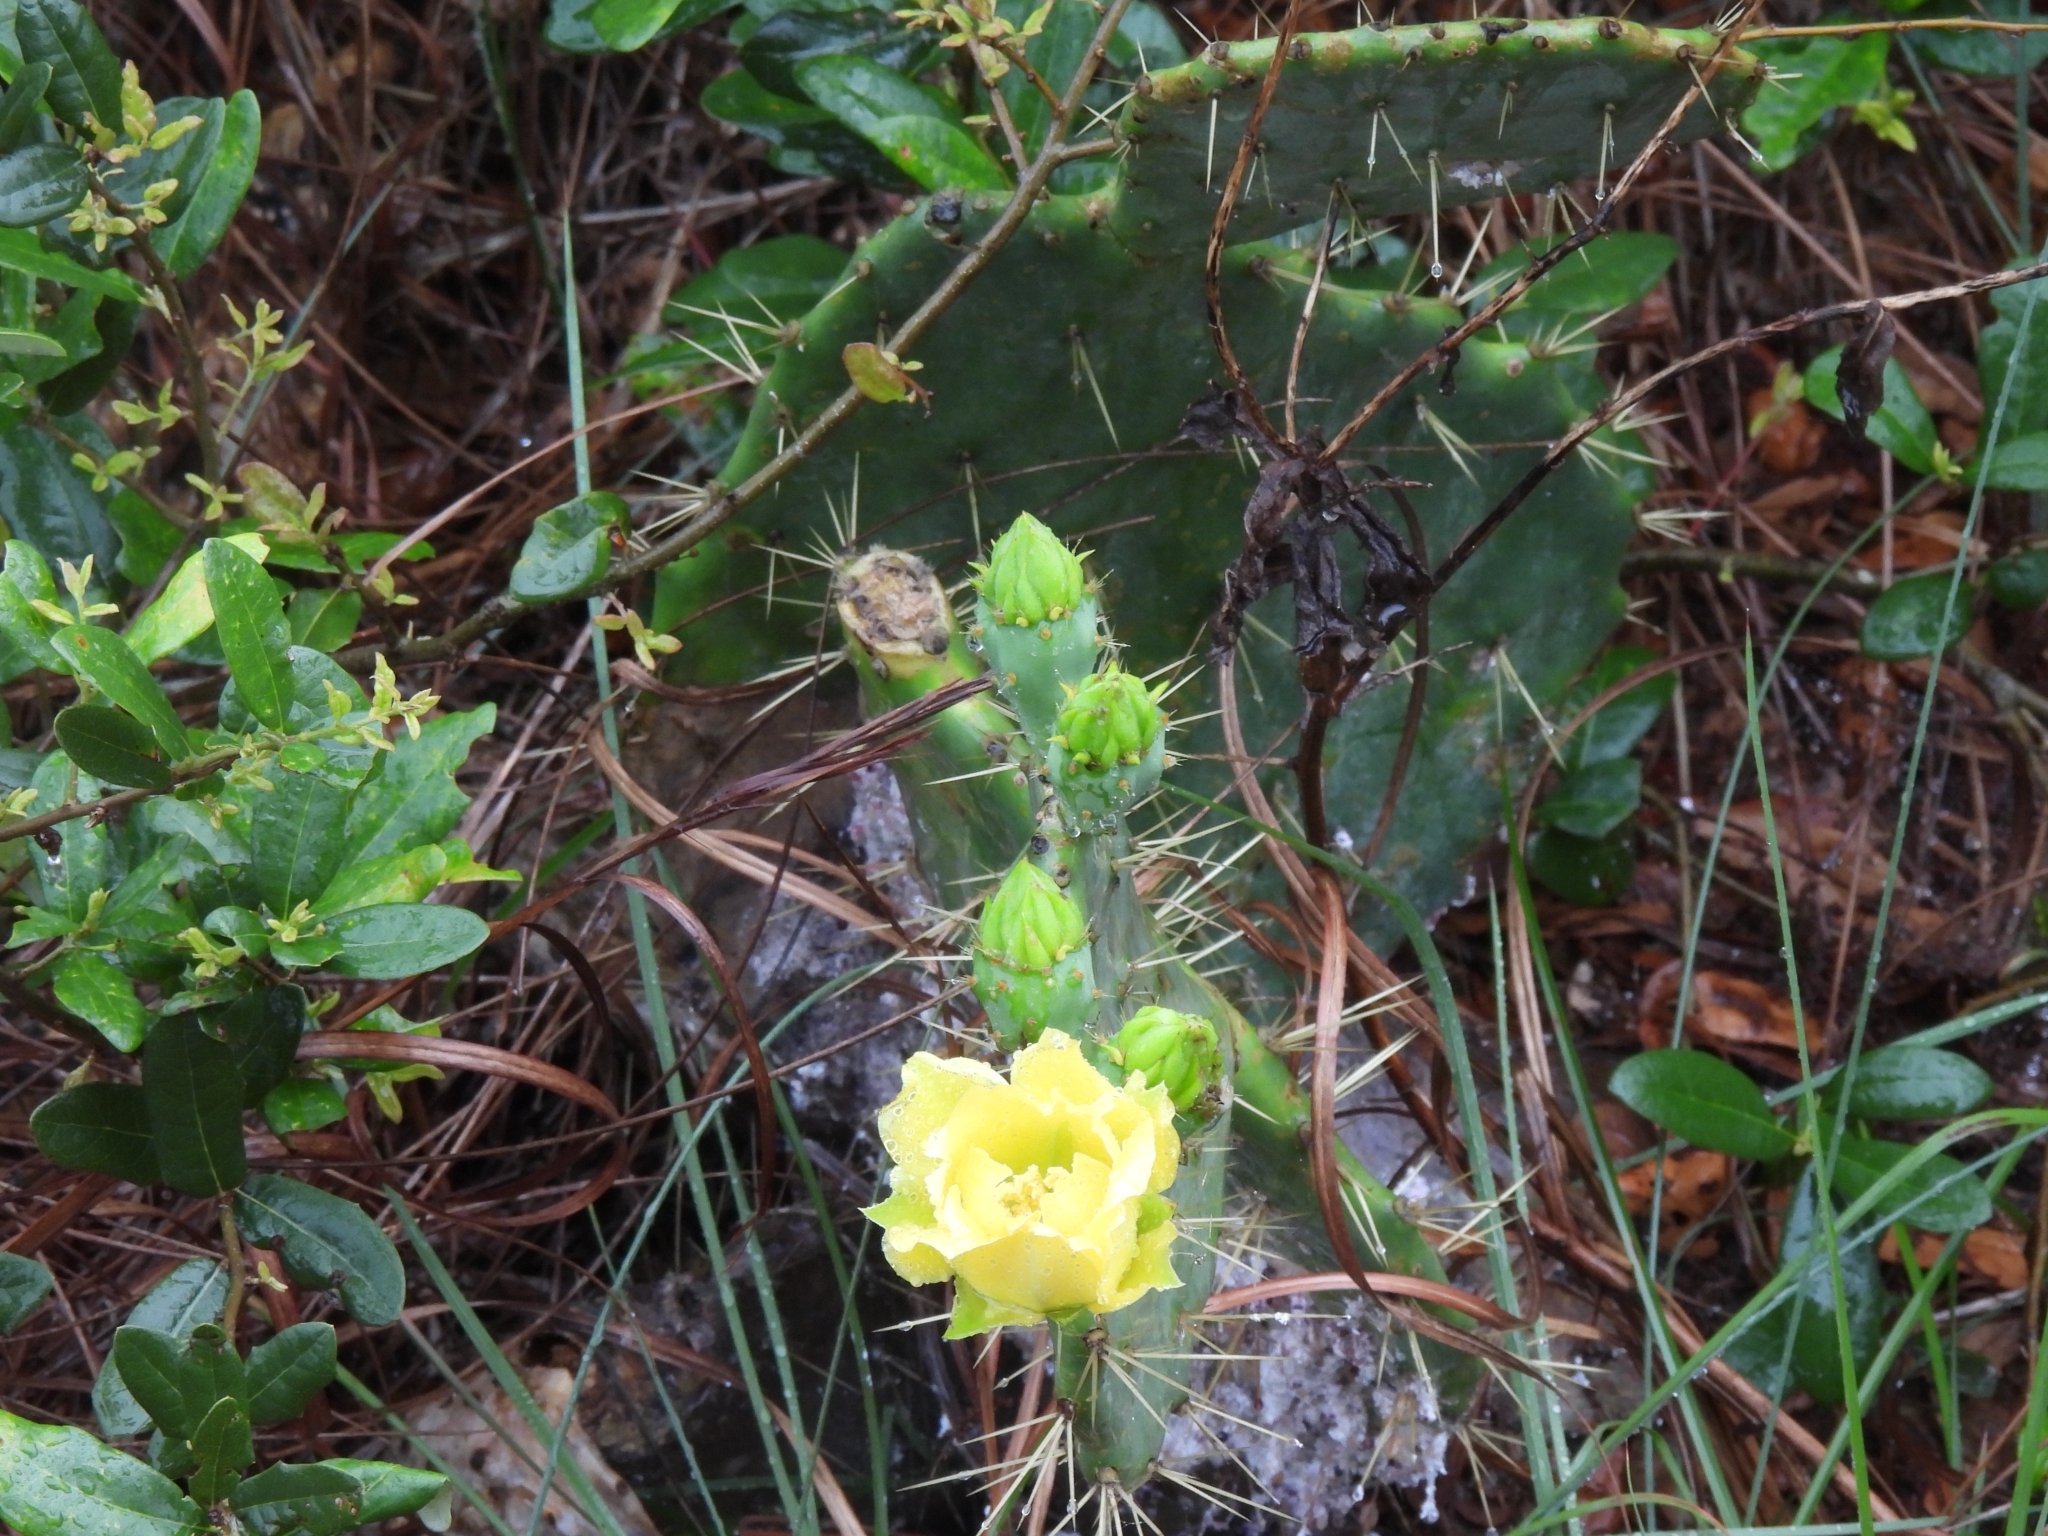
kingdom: Plantae
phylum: Tracheophyta
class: Magnoliopsida
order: Caryophyllales
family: Cactaceae
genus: Opuntia
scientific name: Opuntia engelmannii
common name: Cactus-apple
